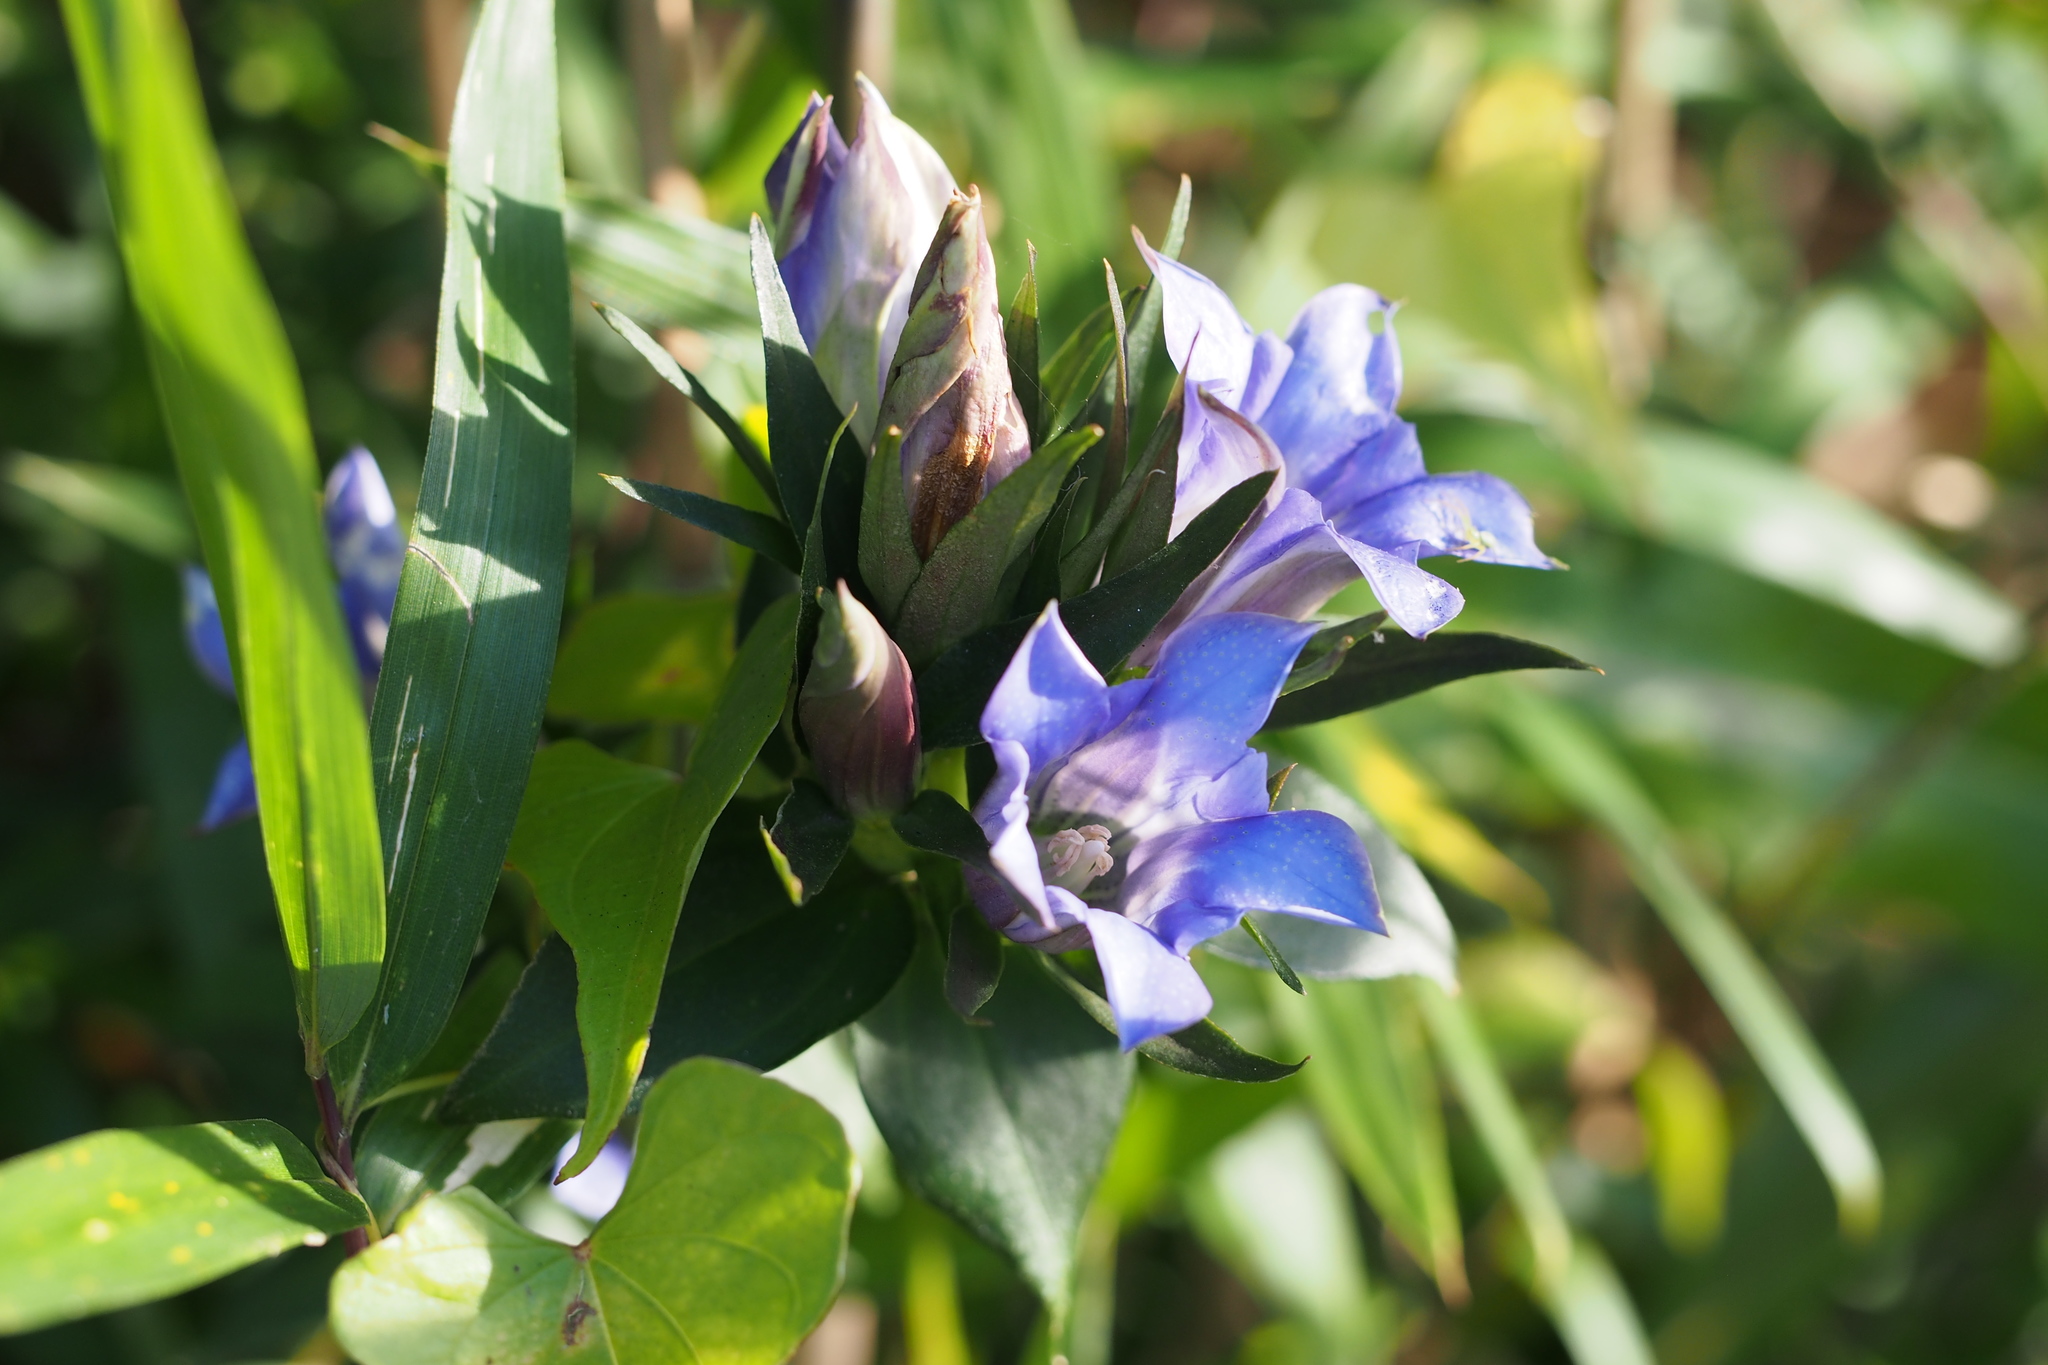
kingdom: Plantae
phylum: Tracheophyta
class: Magnoliopsida
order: Gentianales
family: Gentianaceae
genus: Gentiana
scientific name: Gentiana scabra
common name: Scabrous gentian
